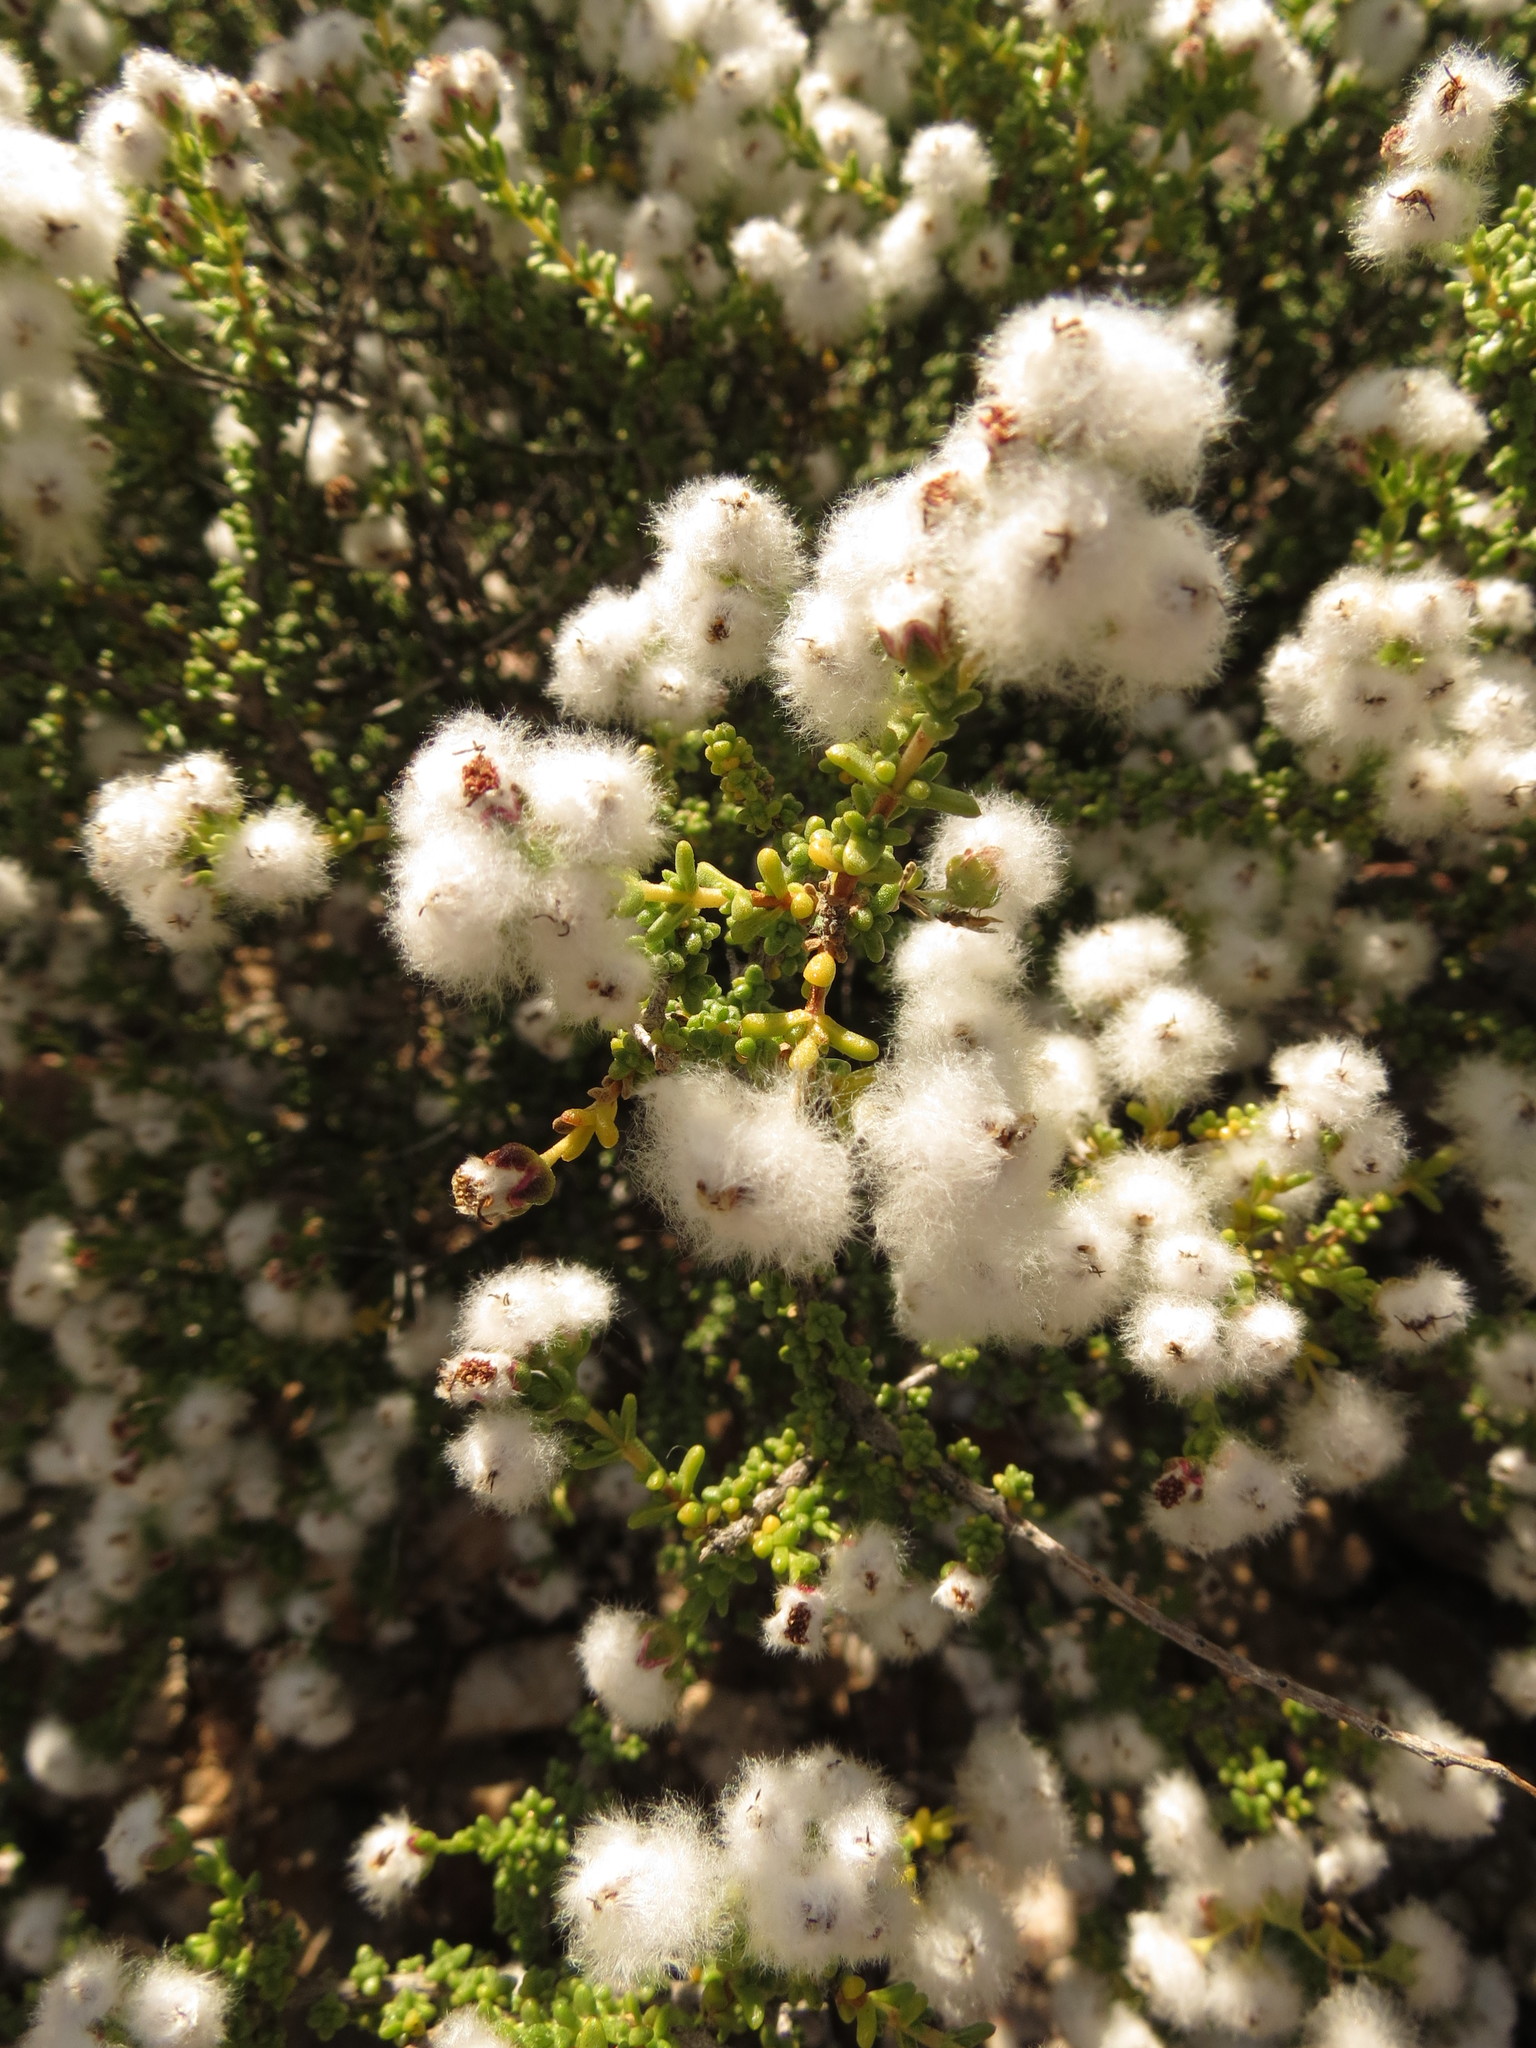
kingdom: Plantae
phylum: Tracheophyta
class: Magnoliopsida
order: Asterales
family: Asteraceae
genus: Eriocephalus
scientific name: Eriocephalus ericoides
